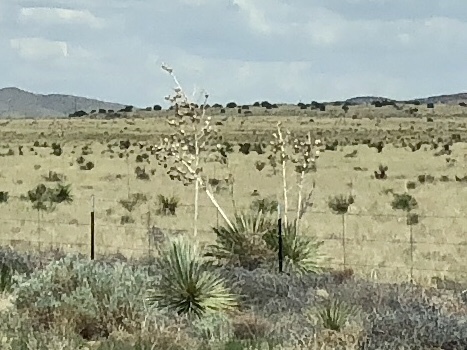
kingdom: Plantae
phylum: Tracheophyta
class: Liliopsida
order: Asparagales
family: Asparagaceae
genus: Yucca
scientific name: Yucca elata
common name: Palmella
